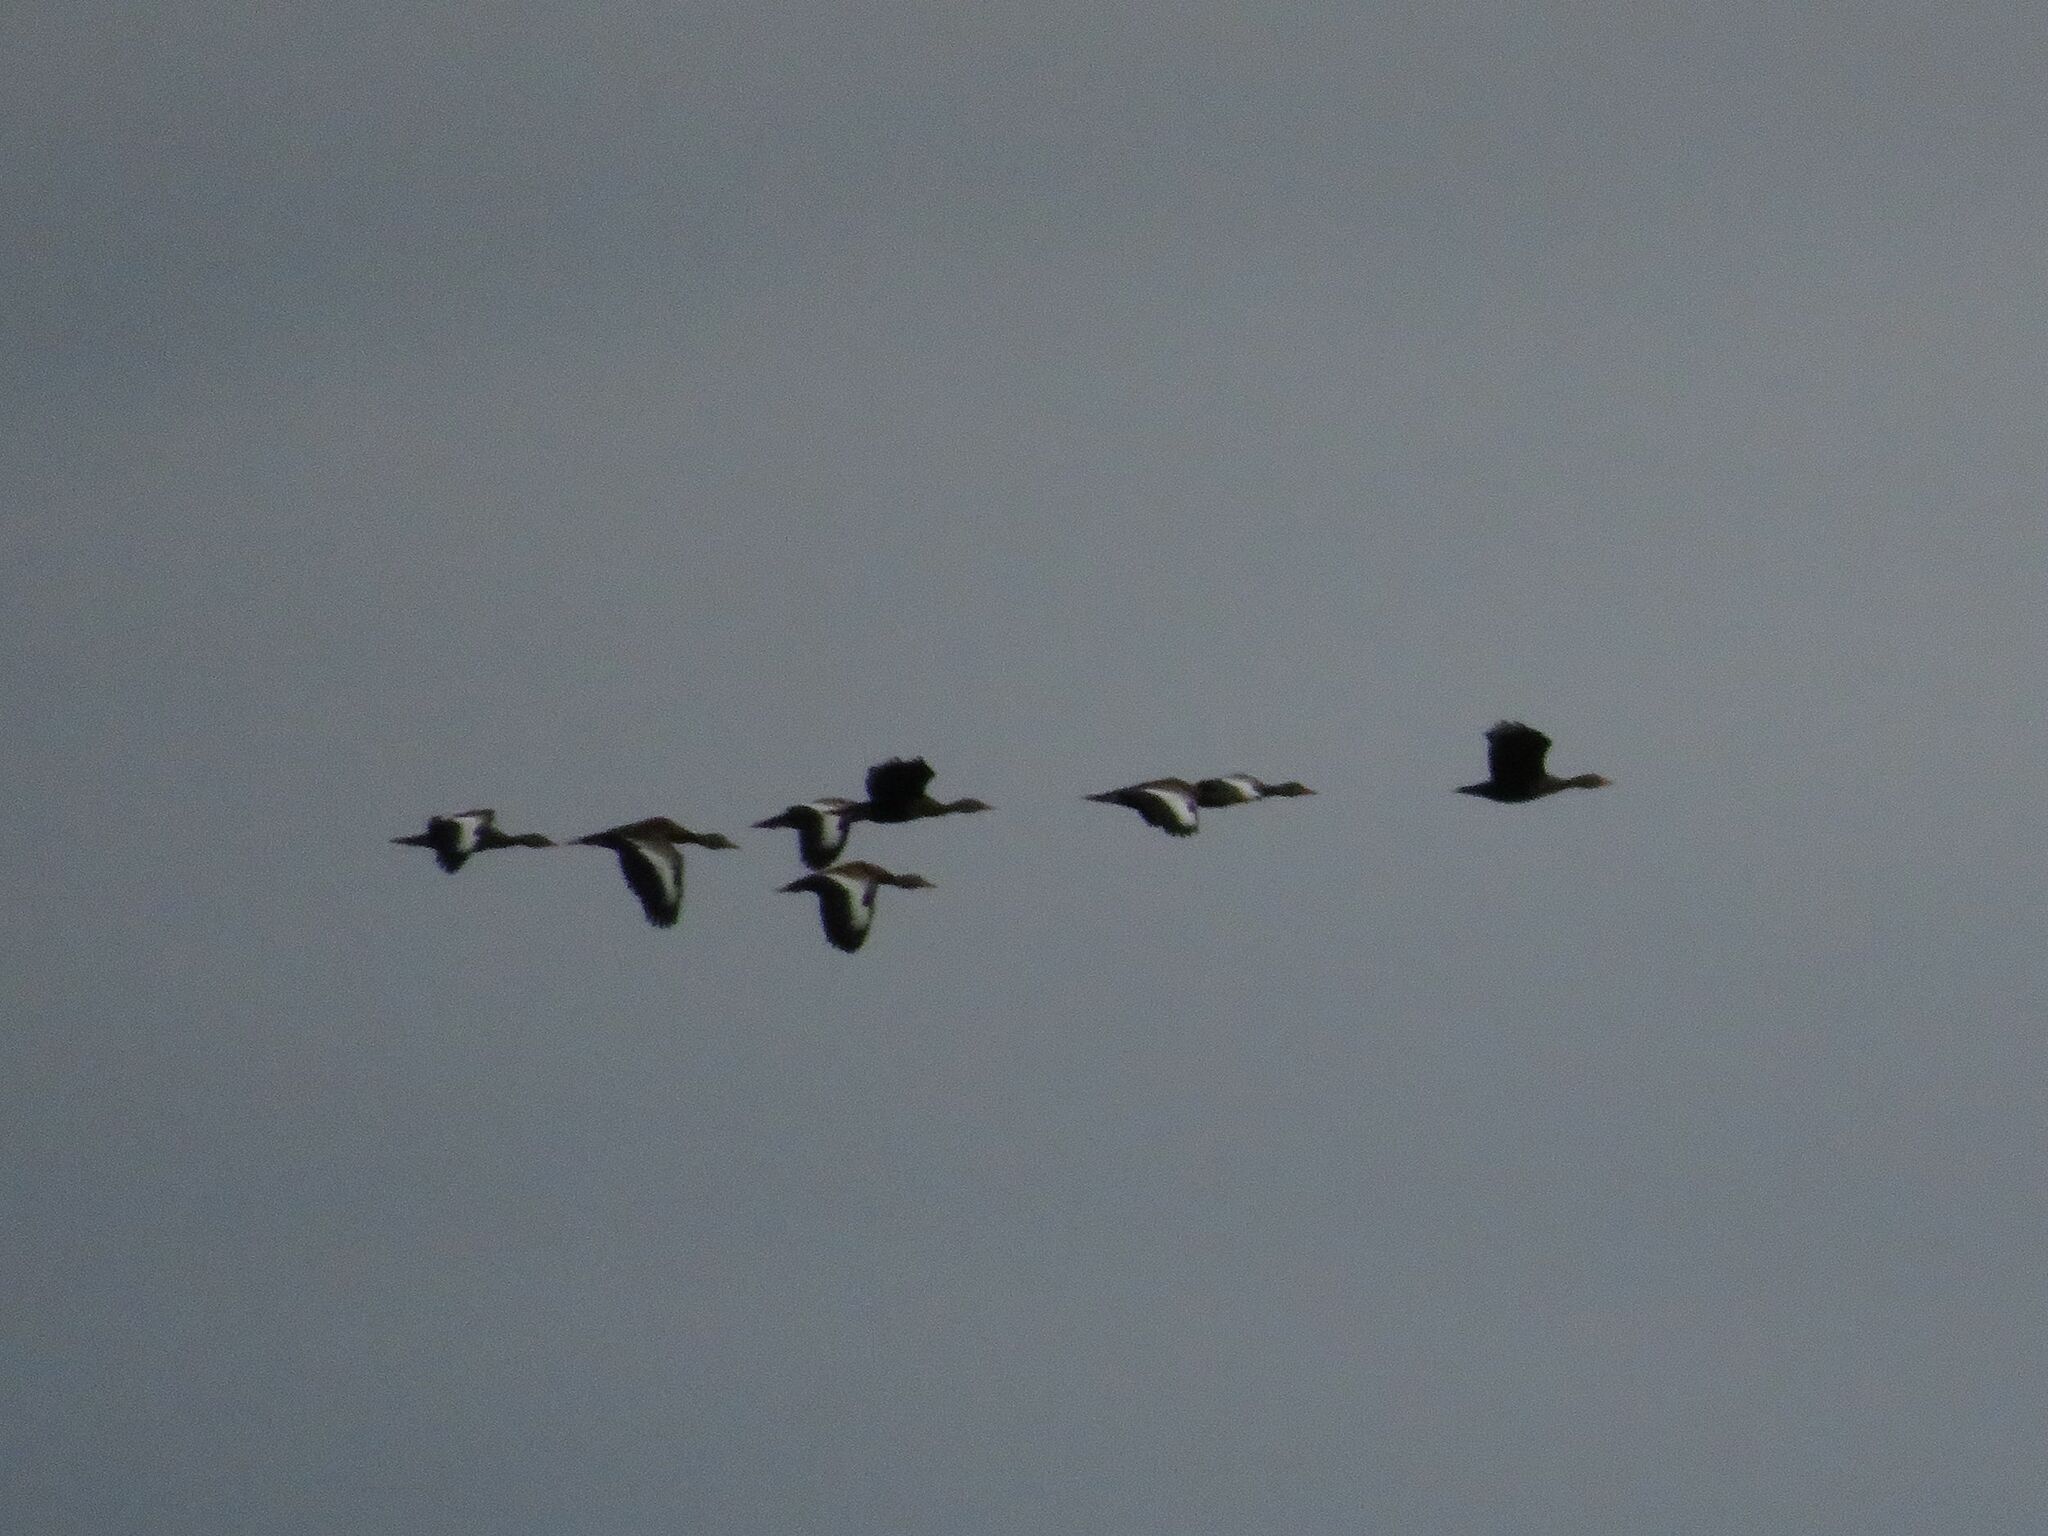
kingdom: Animalia
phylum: Chordata
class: Aves
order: Anseriformes
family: Anatidae
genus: Dendrocygna
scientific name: Dendrocygna autumnalis
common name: Black-bellied whistling duck
